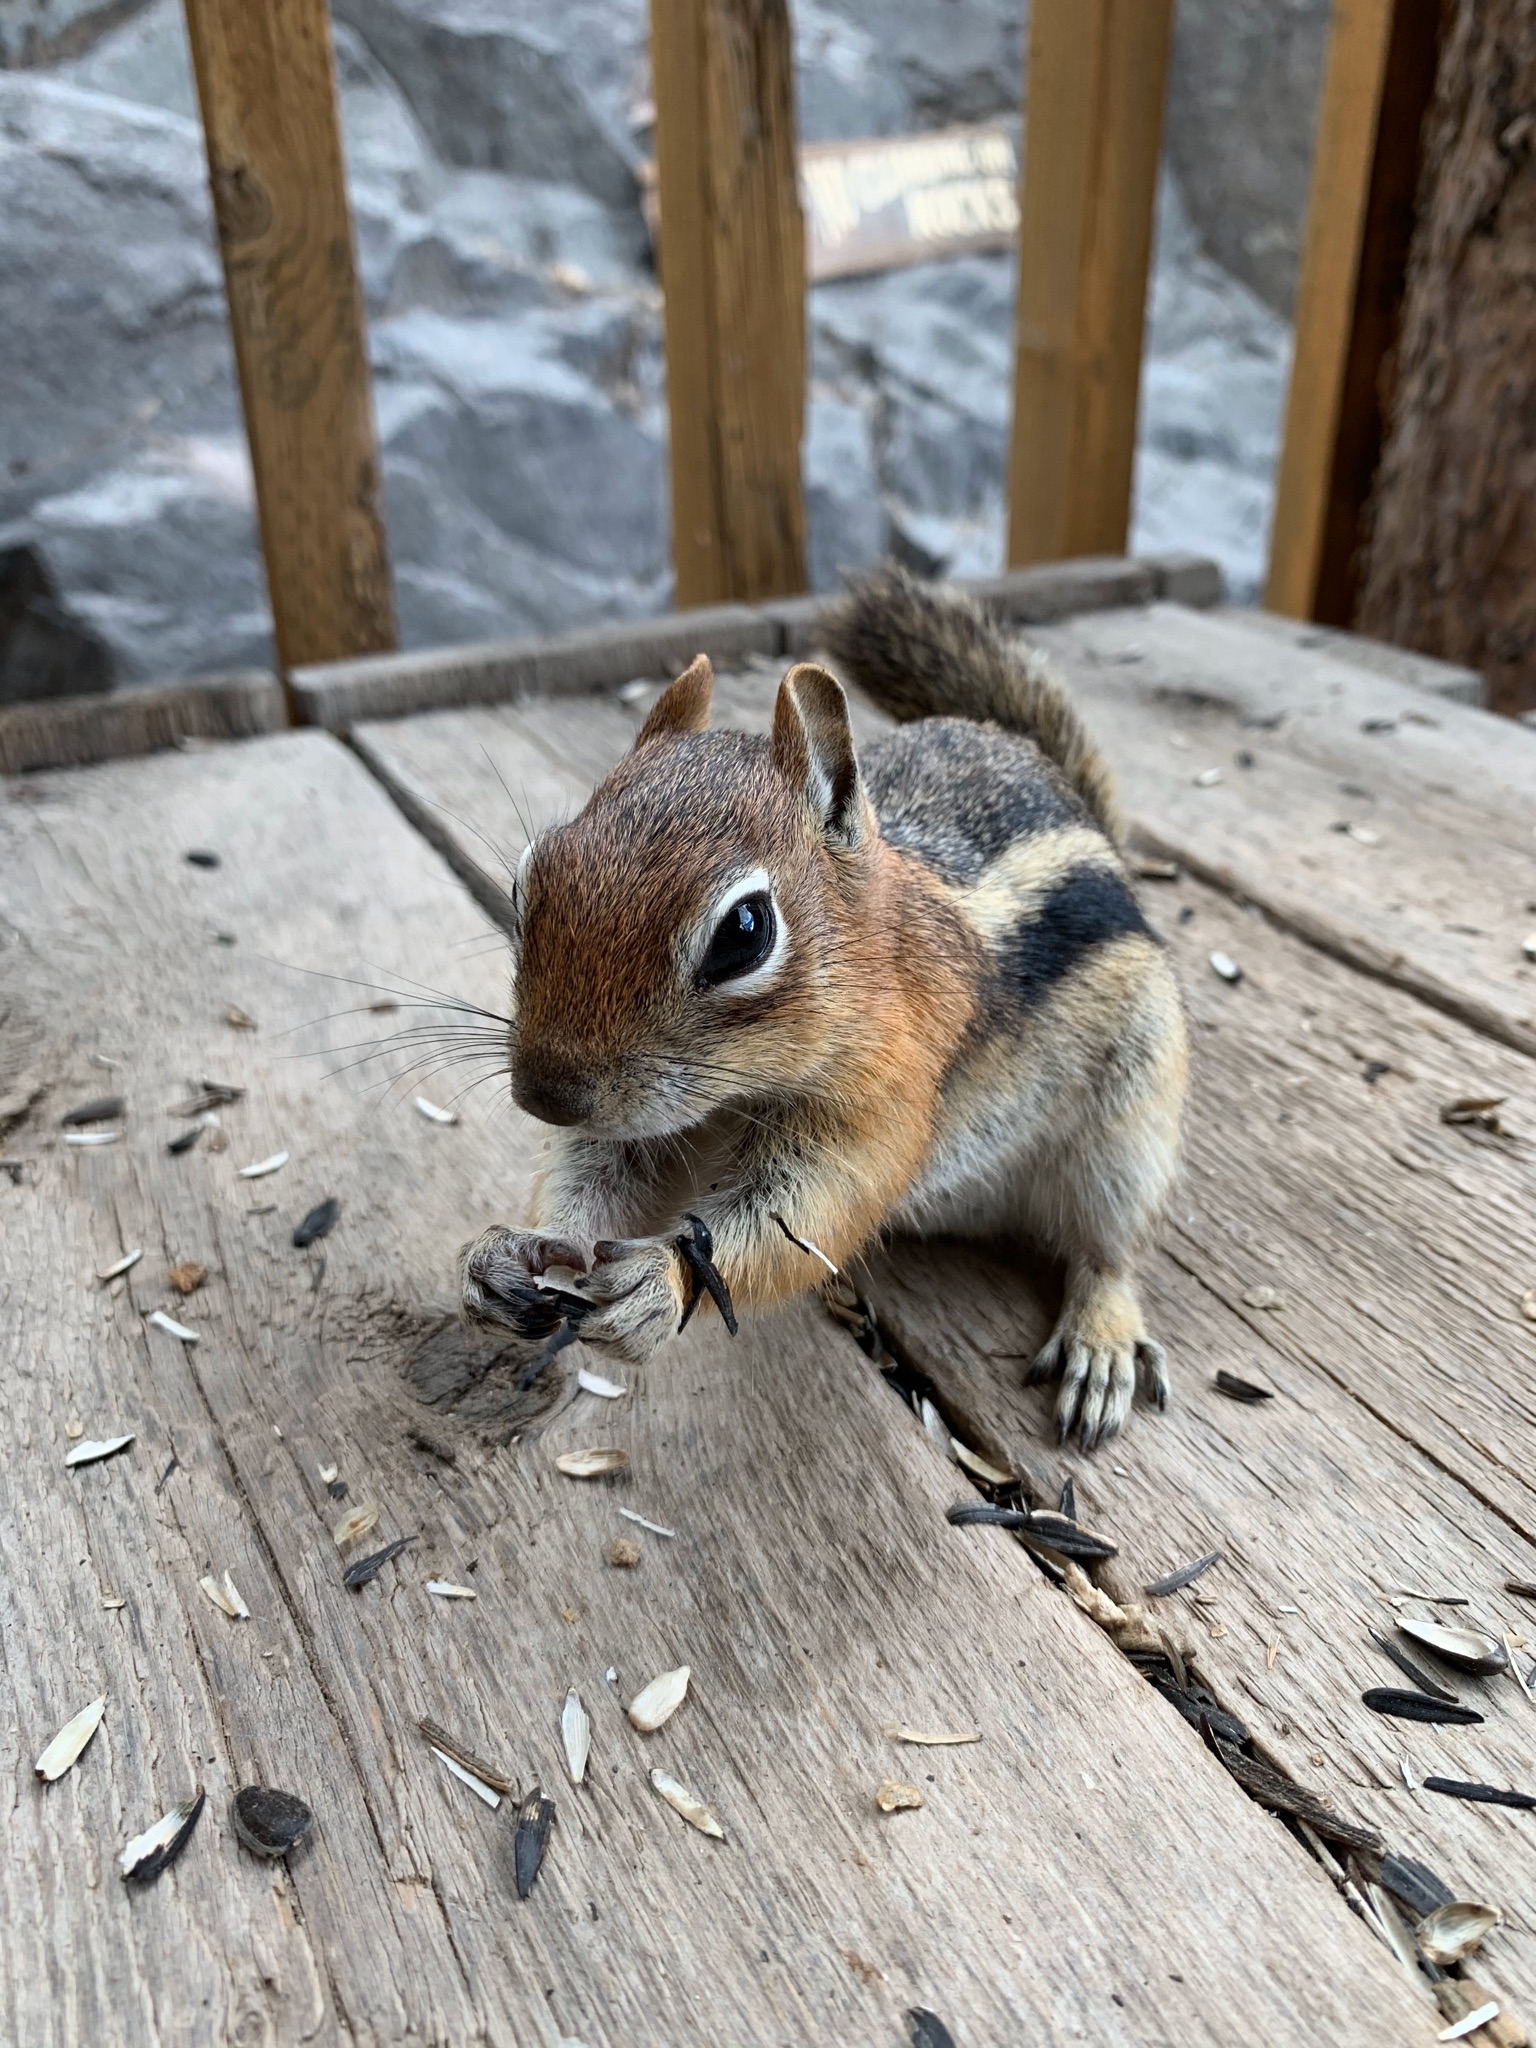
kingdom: Animalia
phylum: Chordata
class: Mammalia
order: Rodentia
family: Sciuridae
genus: Callospermophilus
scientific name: Callospermophilus lateralis
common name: Golden-mantled ground squirrel
